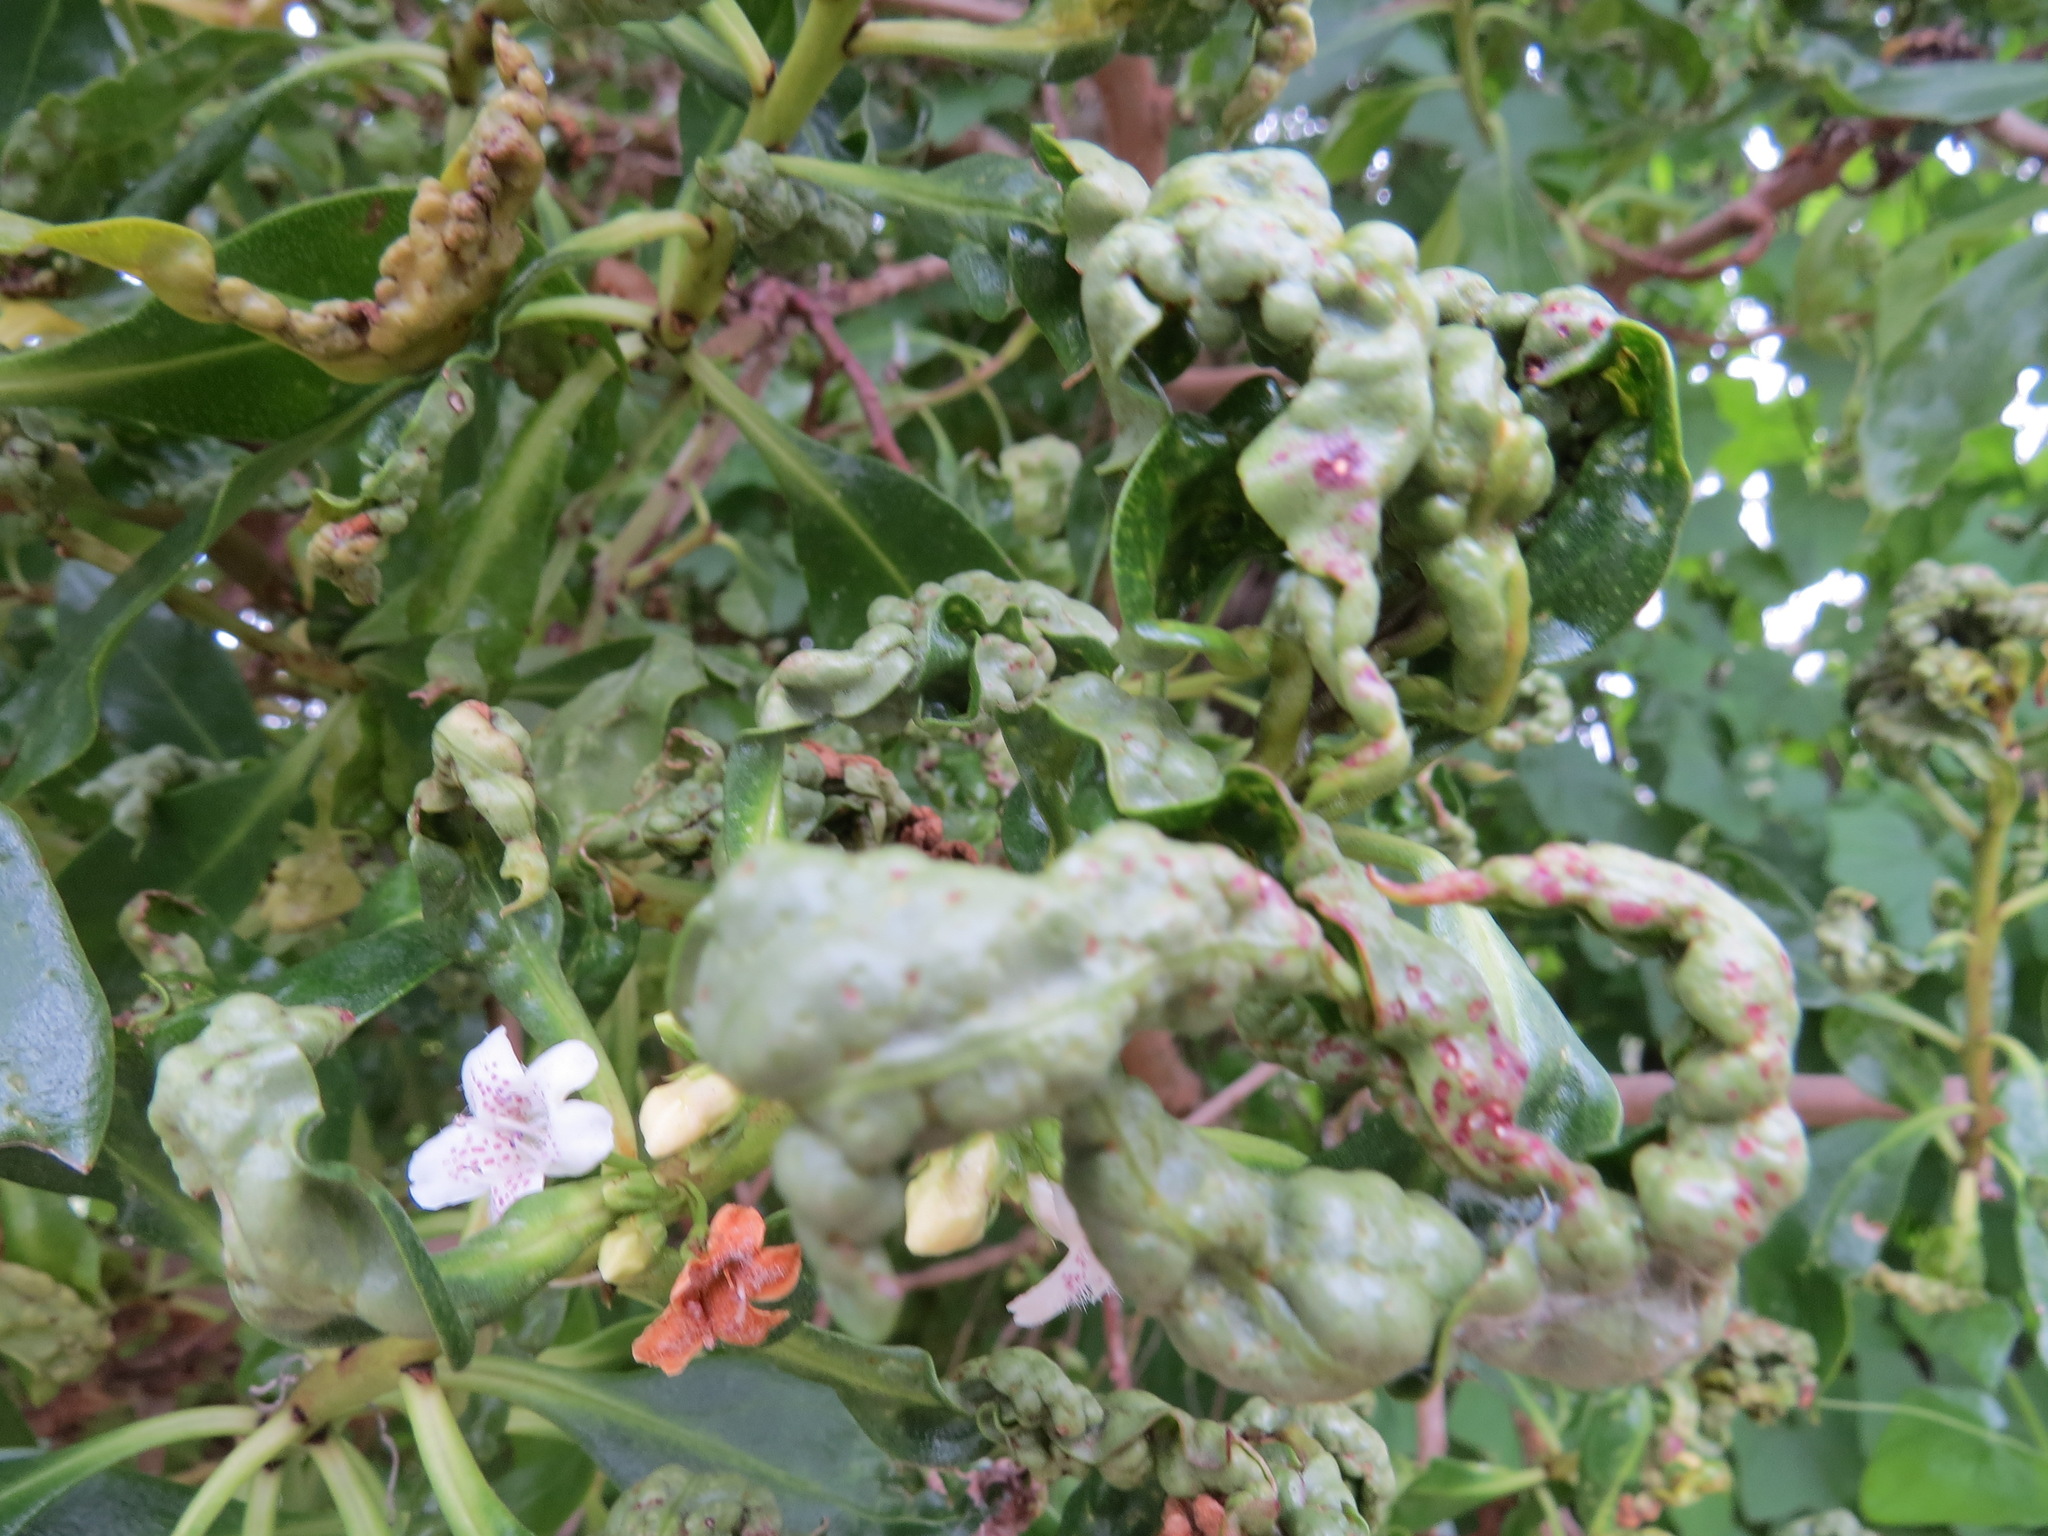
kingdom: Animalia
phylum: Arthropoda
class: Insecta
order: Thysanoptera
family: Phlaeothripidae
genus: Klambothrips
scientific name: Klambothrips myopori
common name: Myoporum thrips
